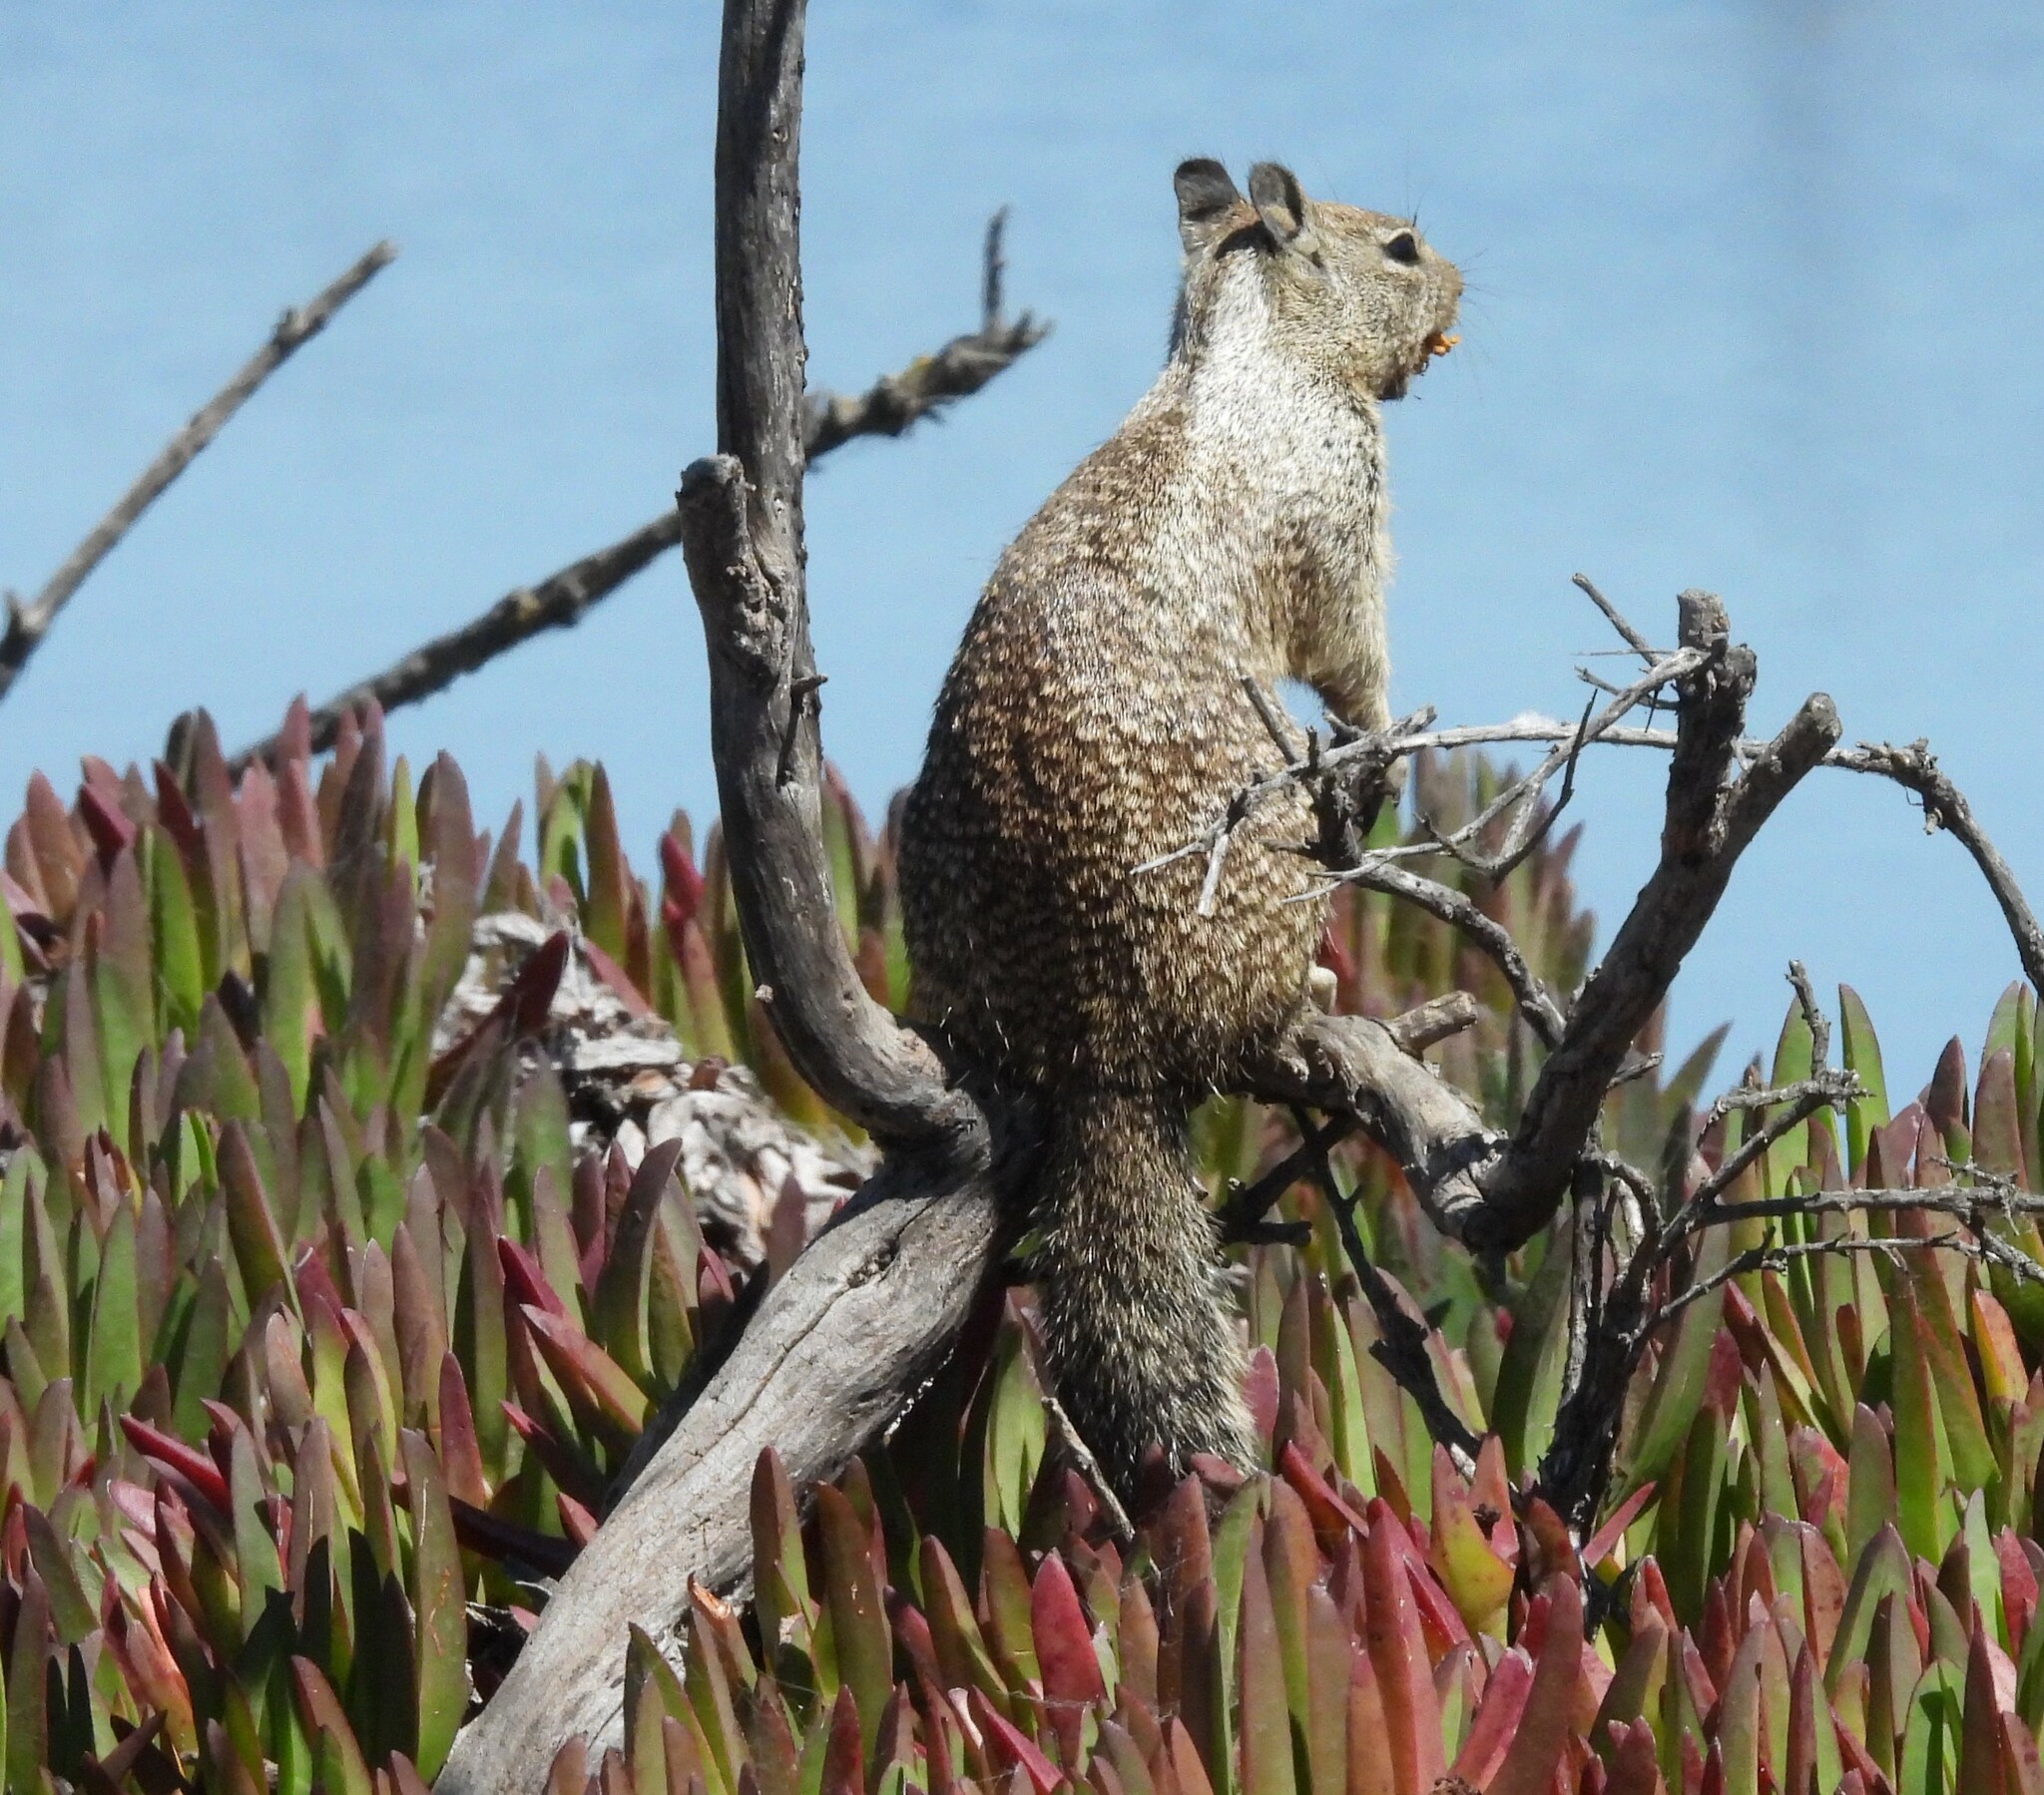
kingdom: Animalia
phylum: Chordata
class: Mammalia
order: Rodentia
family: Sciuridae
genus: Otospermophilus
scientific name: Otospermophilus beecheyi
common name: California ground squirrel
